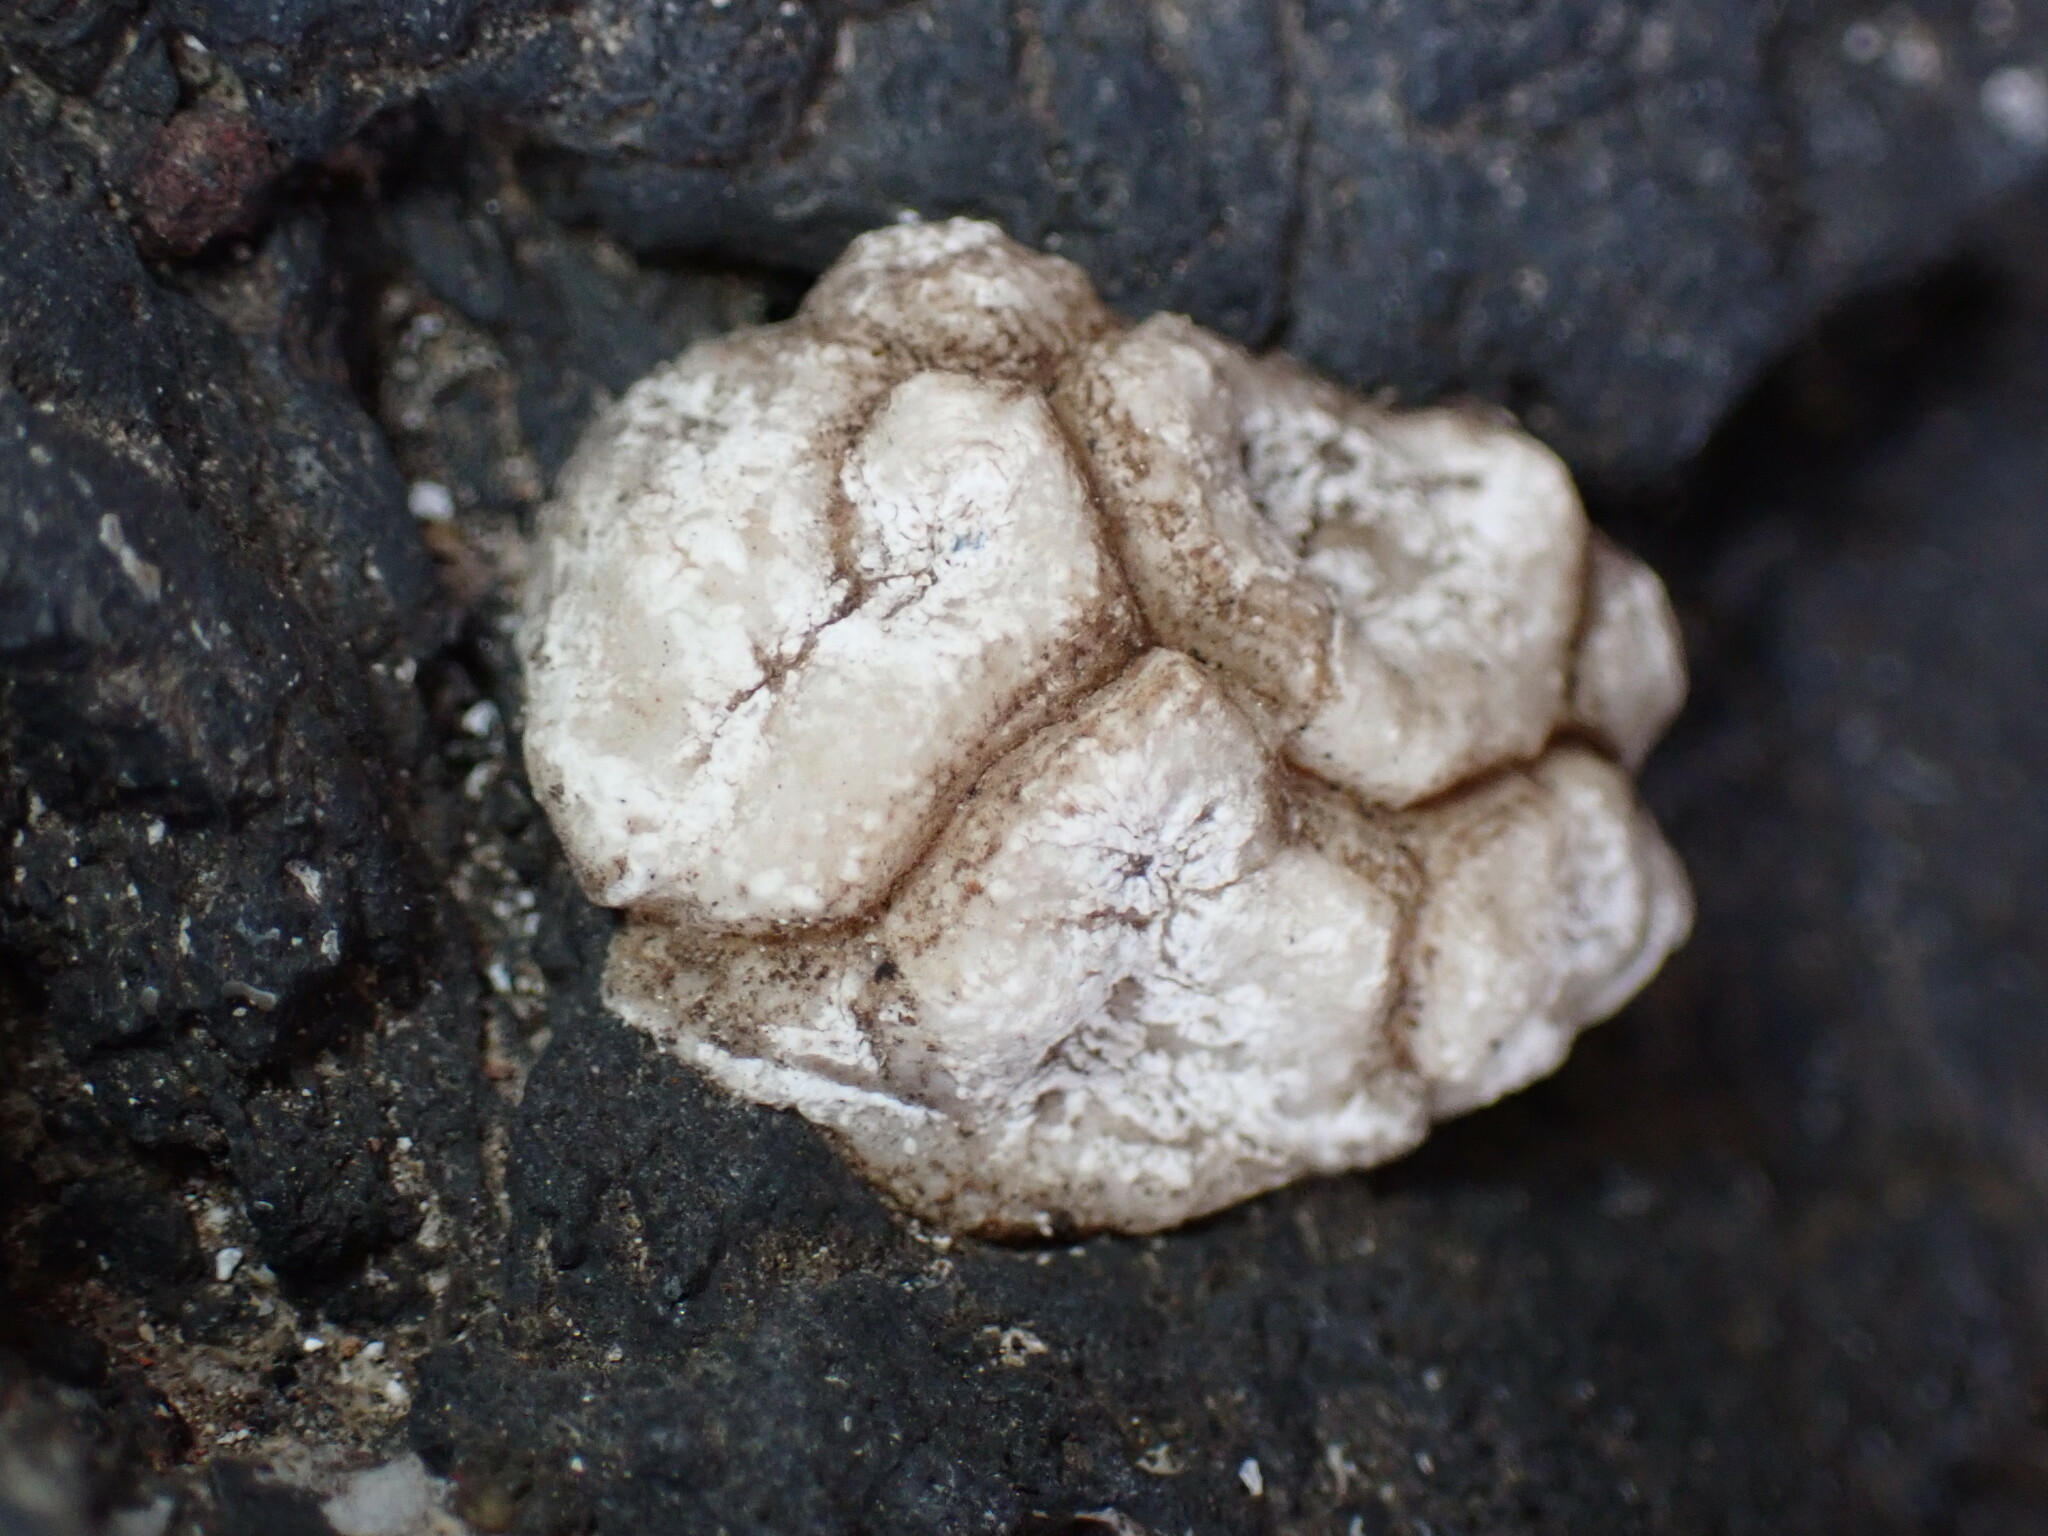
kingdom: Animalia
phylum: Arthropoda
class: Maxillopoda
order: Pedunculata
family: Pollicipedidae
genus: Pollicipes
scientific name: Pollicipes pollicipes
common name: Gooseneck barnacle
